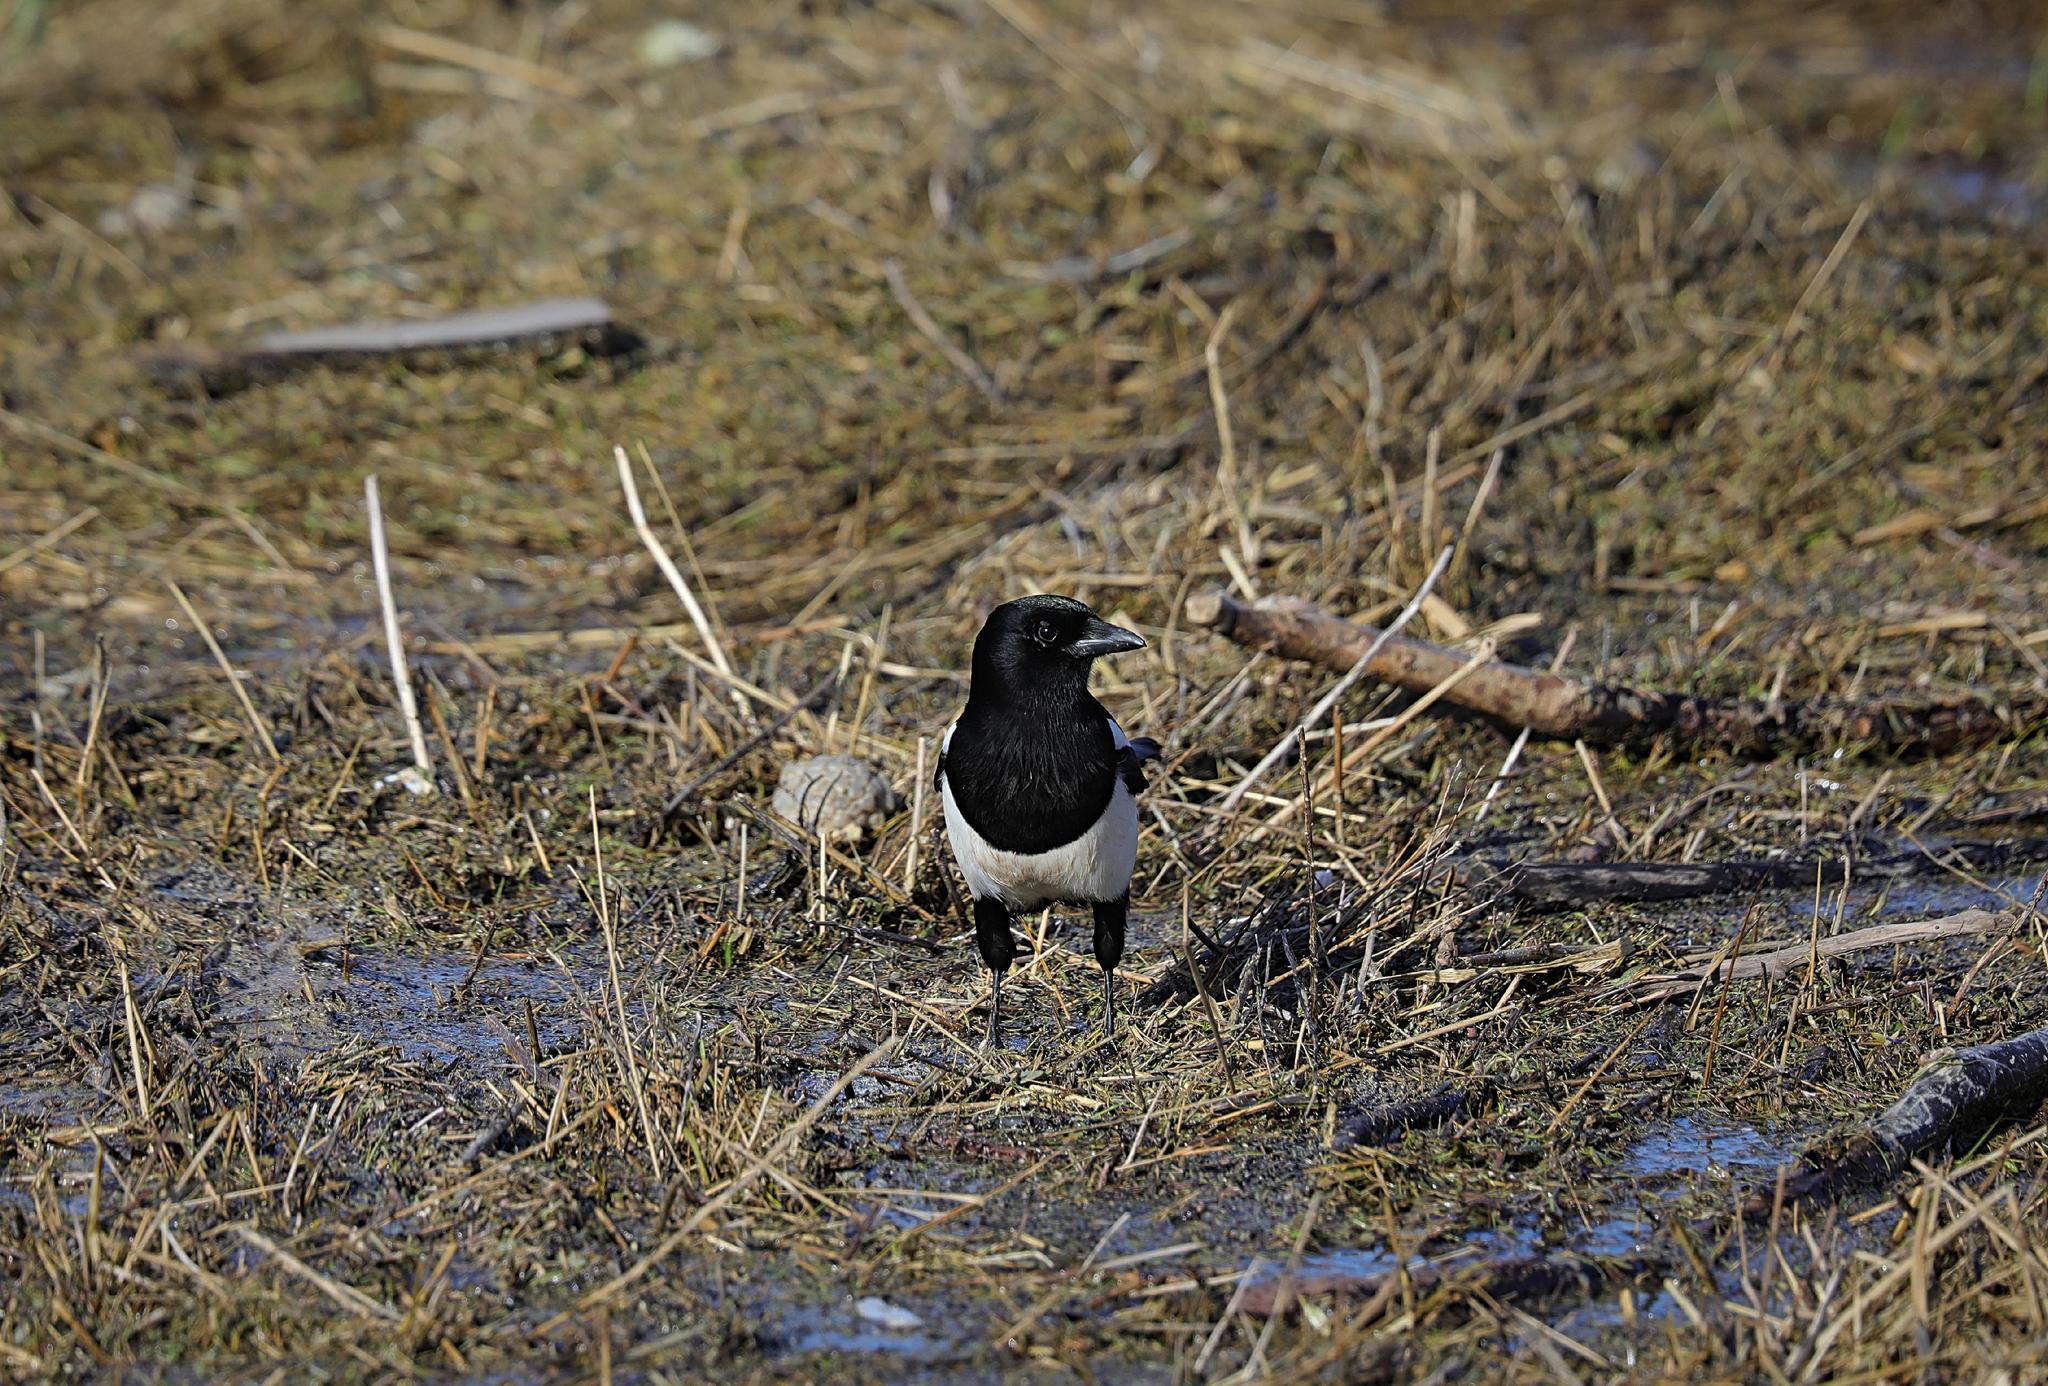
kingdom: Animalia
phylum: Chordata
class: Aves
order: Passeriformes
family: Corvidae
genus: Pica
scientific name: Pica pica
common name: Eurasian magpie
